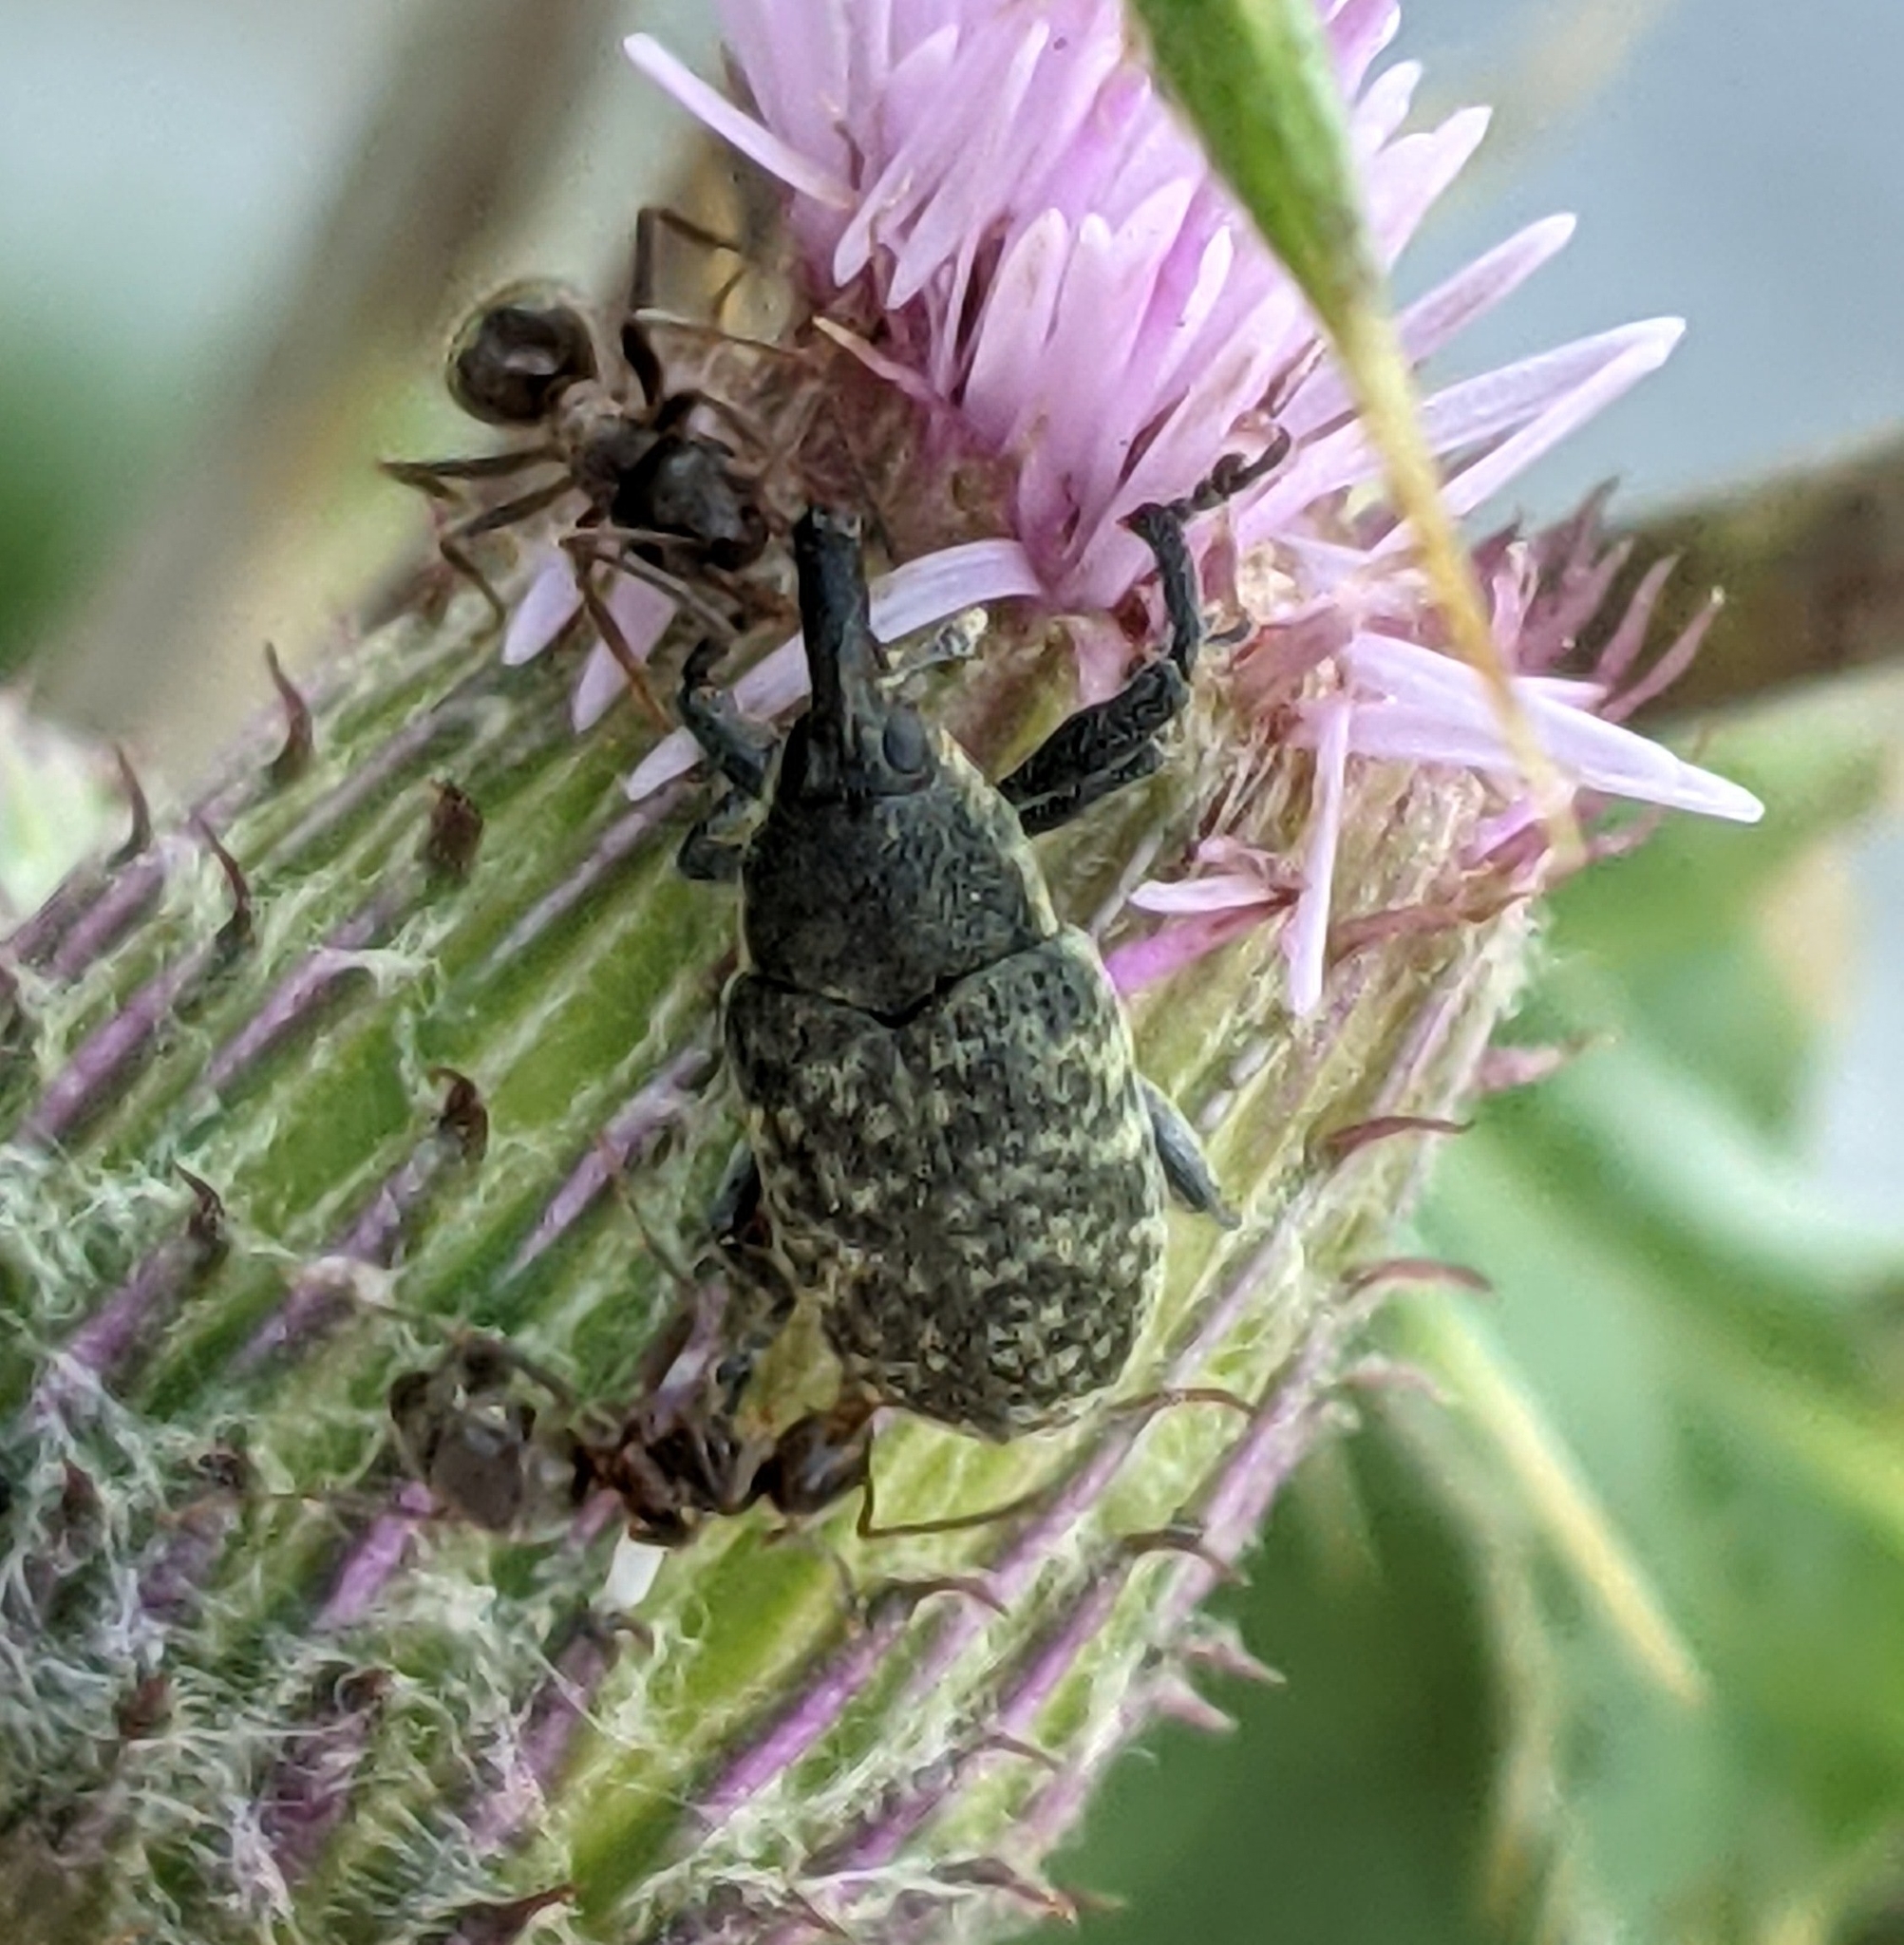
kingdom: Animalia
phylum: Arthropoda
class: Insecta
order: Coleoptera
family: Curculionidae
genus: Larinus
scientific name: Larinus carlinae
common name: Weevil
